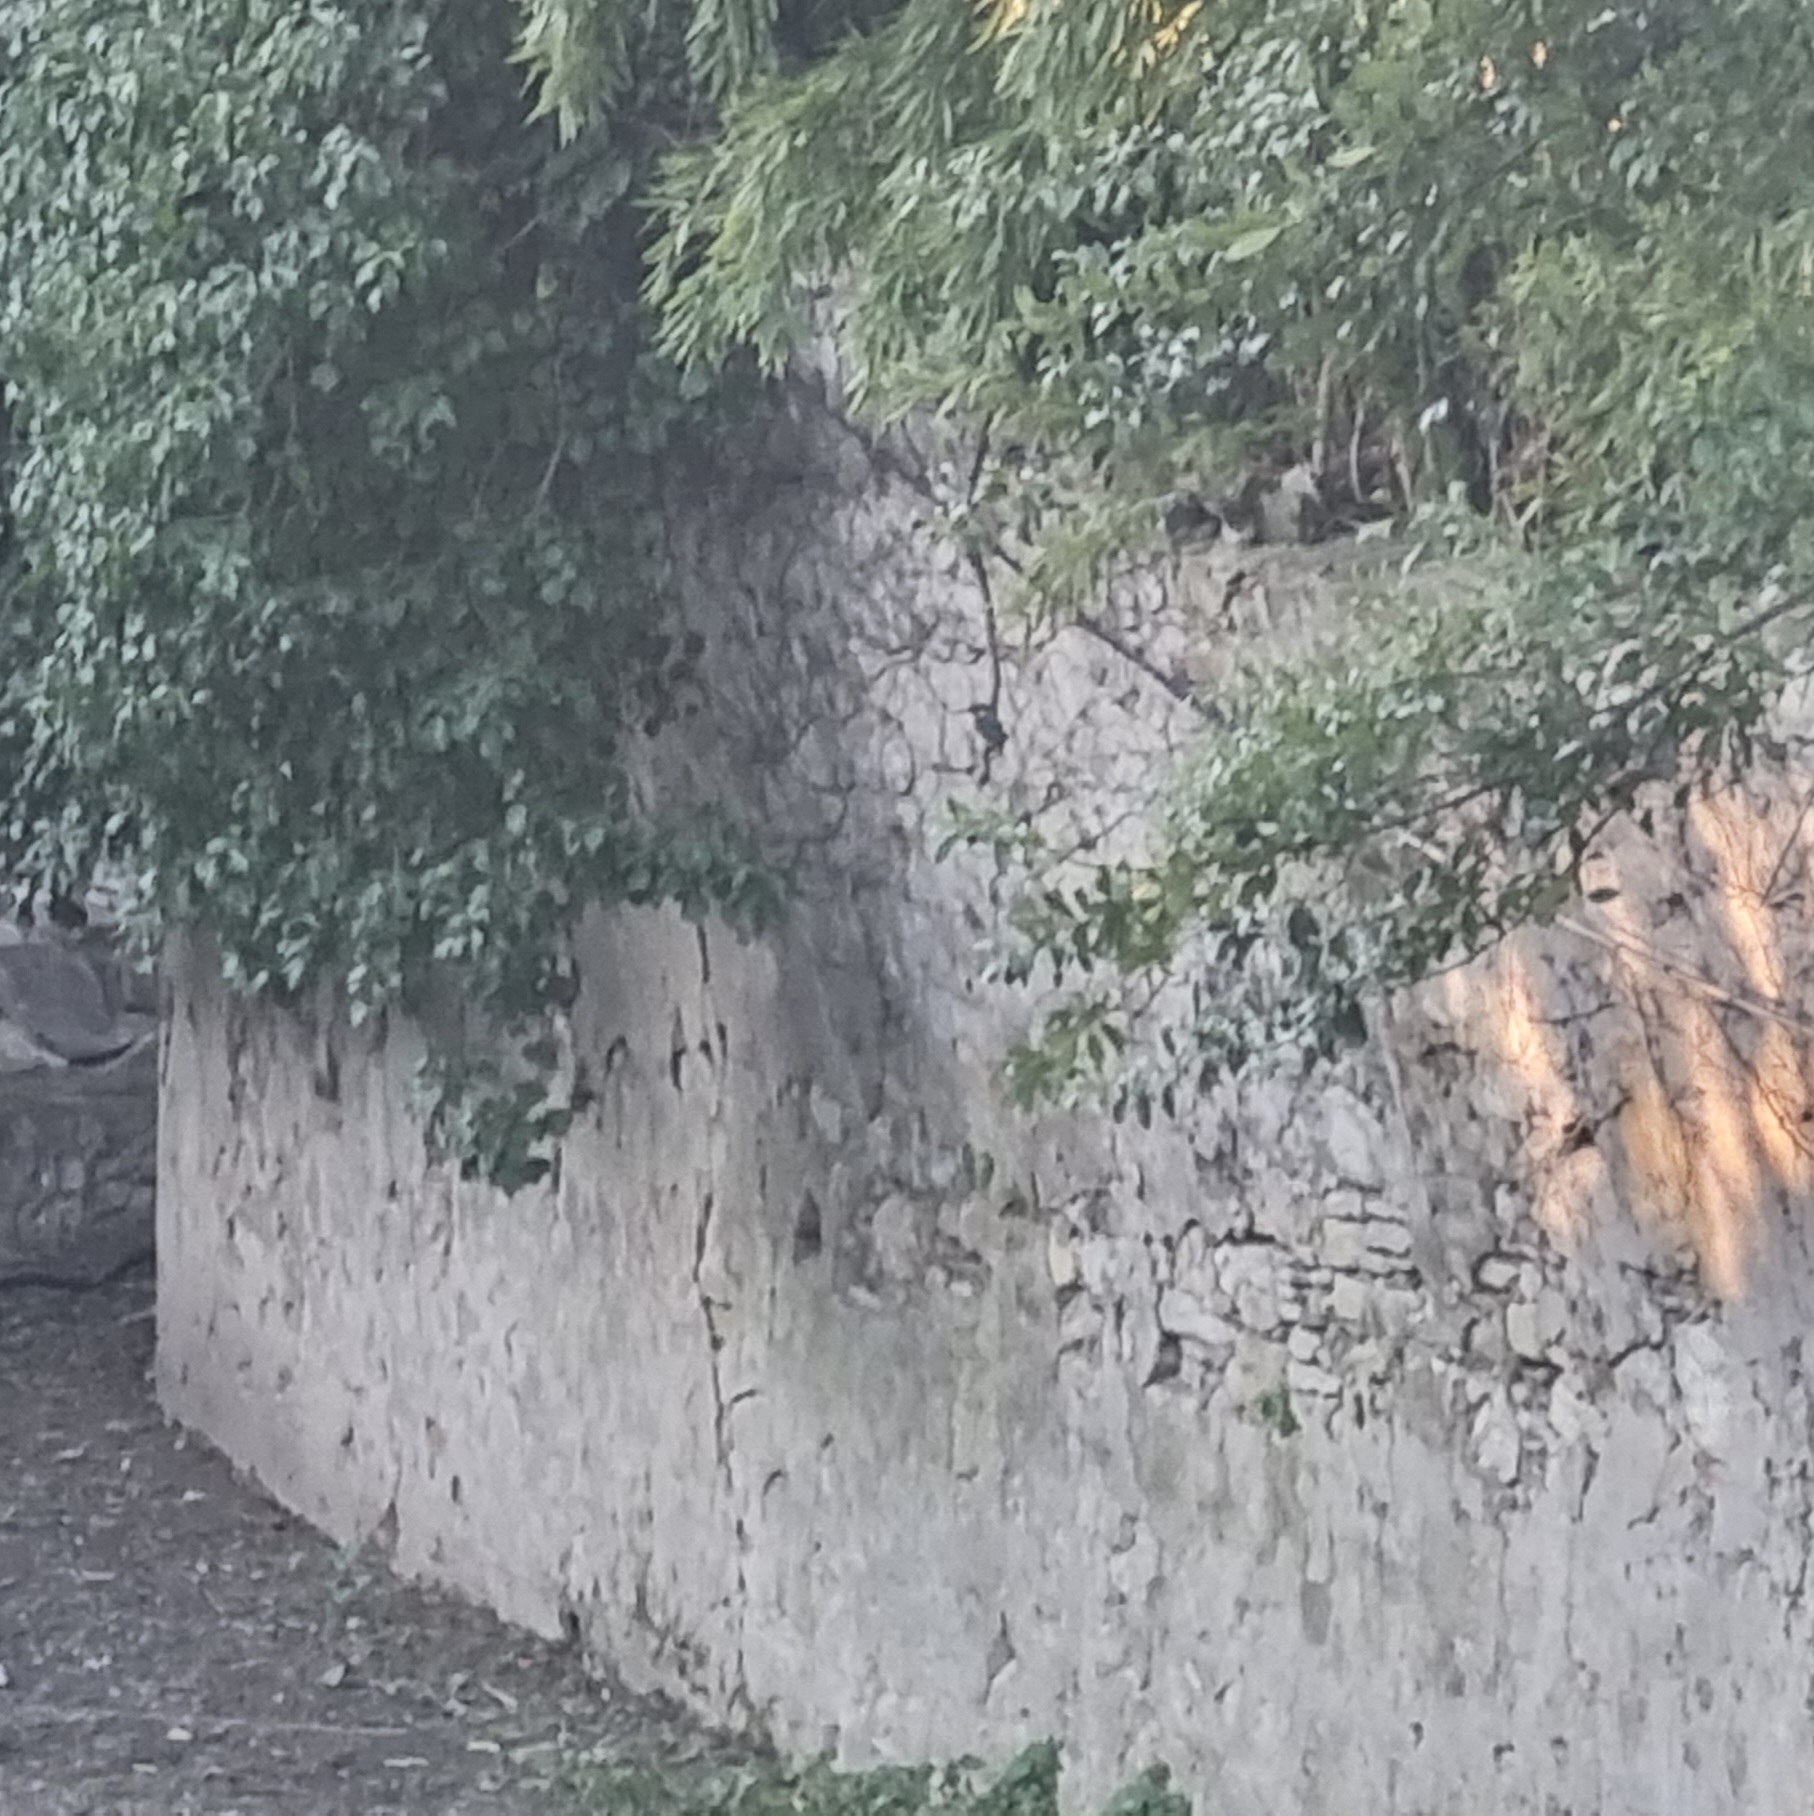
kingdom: Animalia
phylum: Chordata
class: Aves
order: Coraciiformes
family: Alcedinidae
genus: Alcedo
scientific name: Alcedo atthis
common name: Common kingfisher
